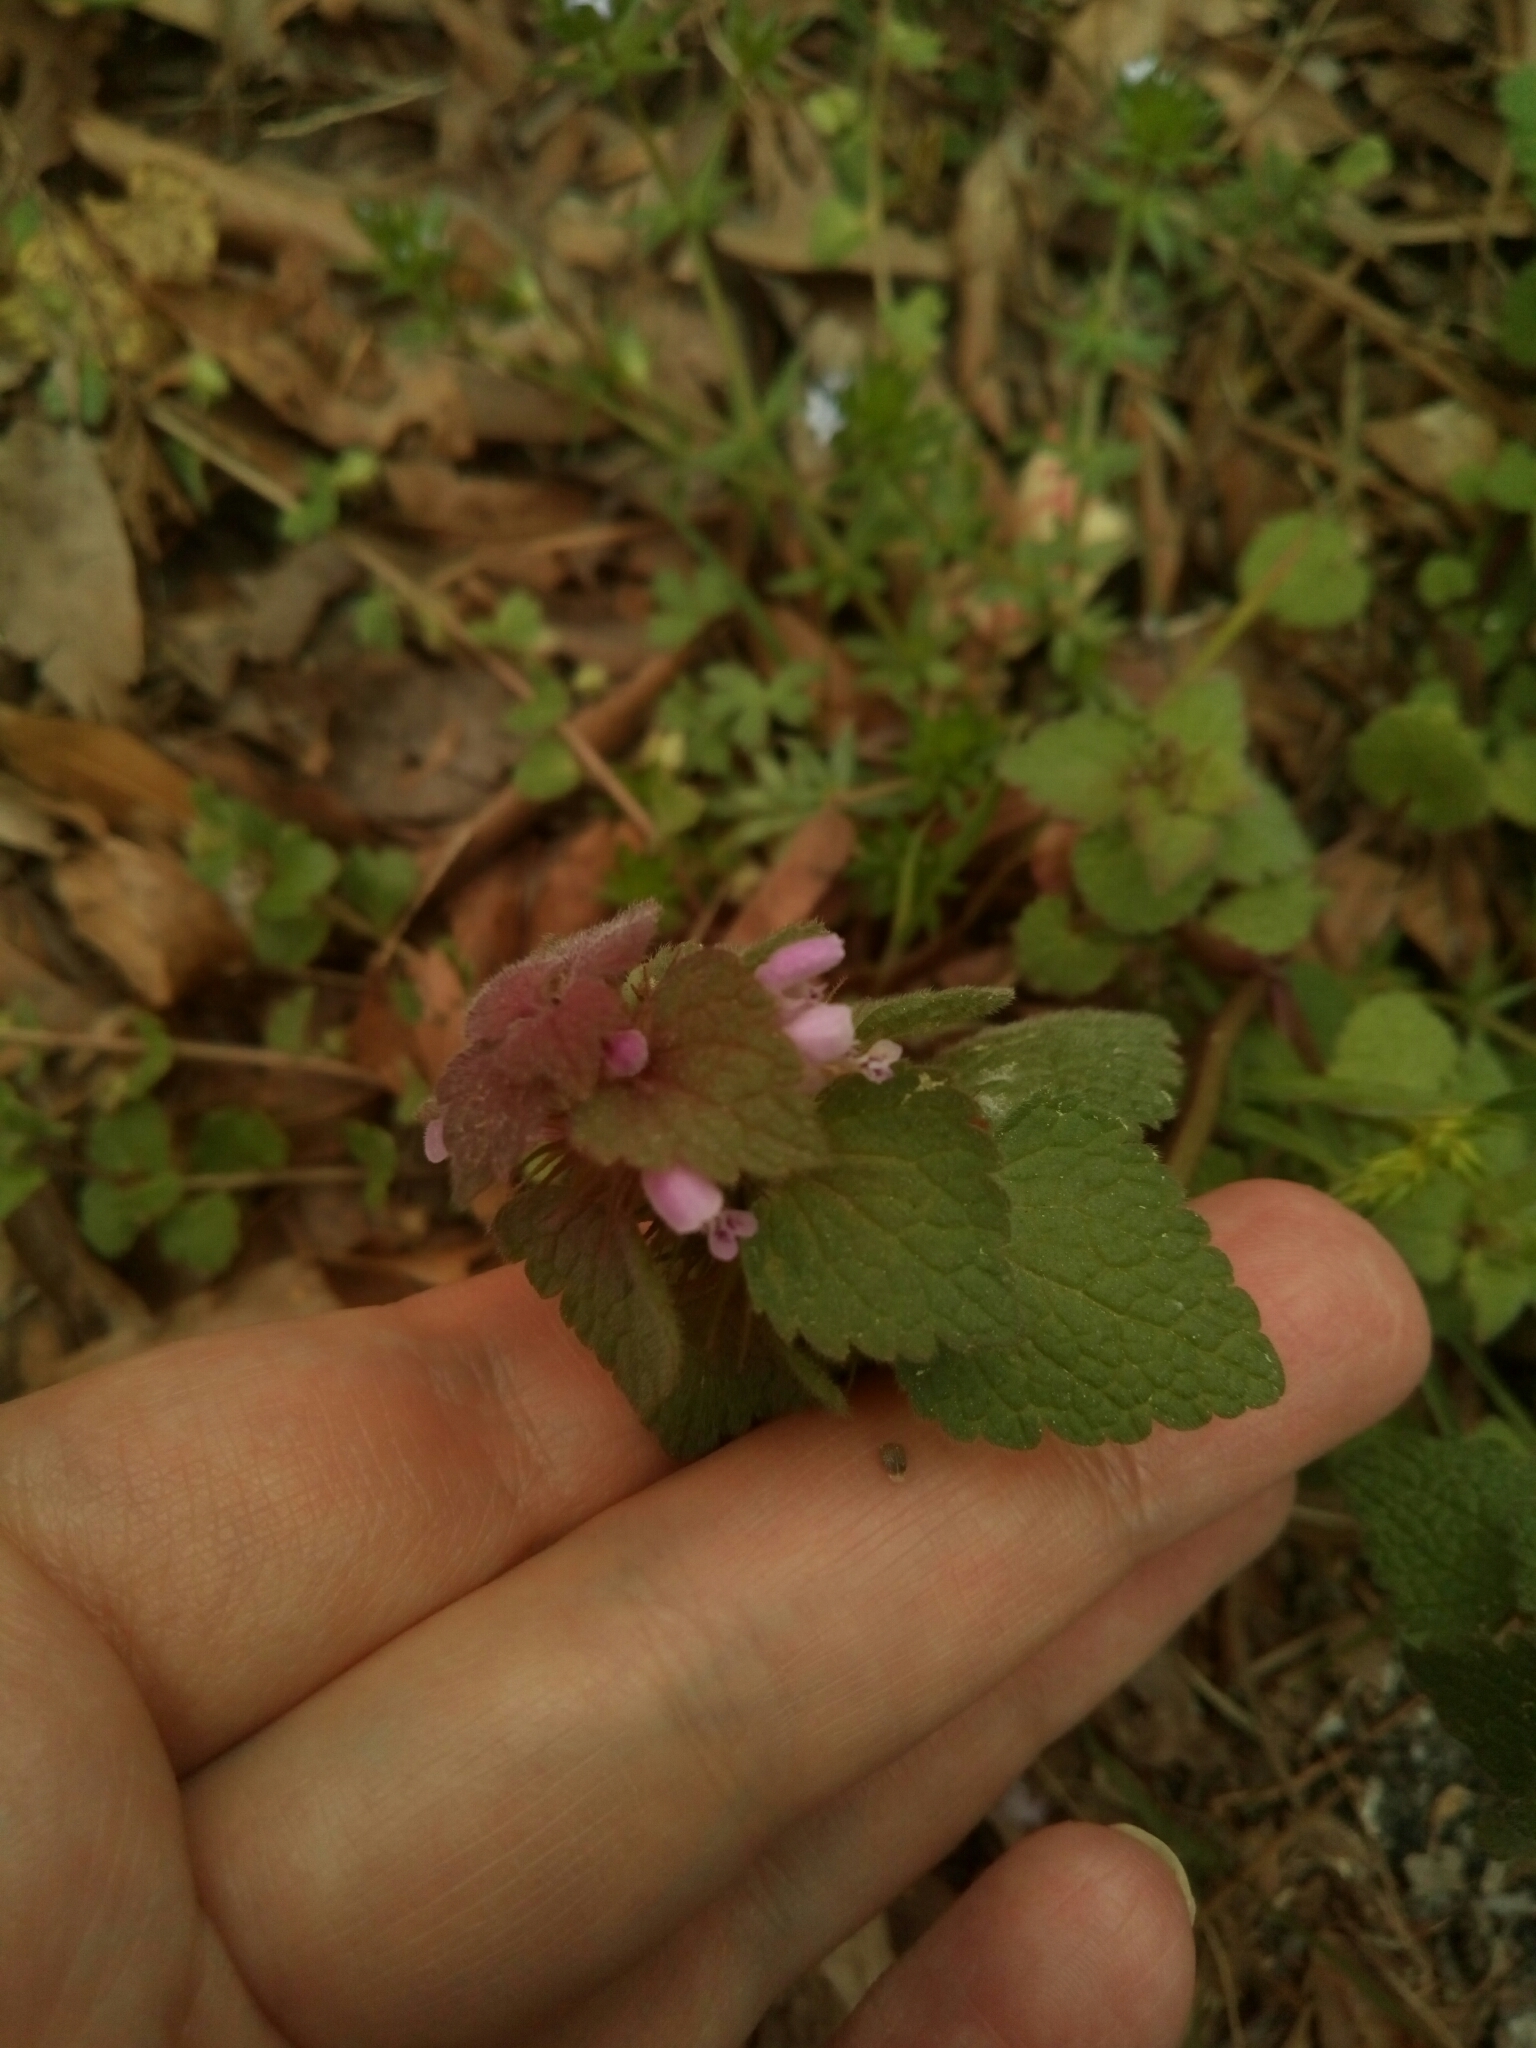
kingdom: Plantae
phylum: Tracheophyta
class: Magnoliopsida
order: Lamiales
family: Lamiaceae
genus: Lamium
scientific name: Lamium purpureum
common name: Red dead-nettle
